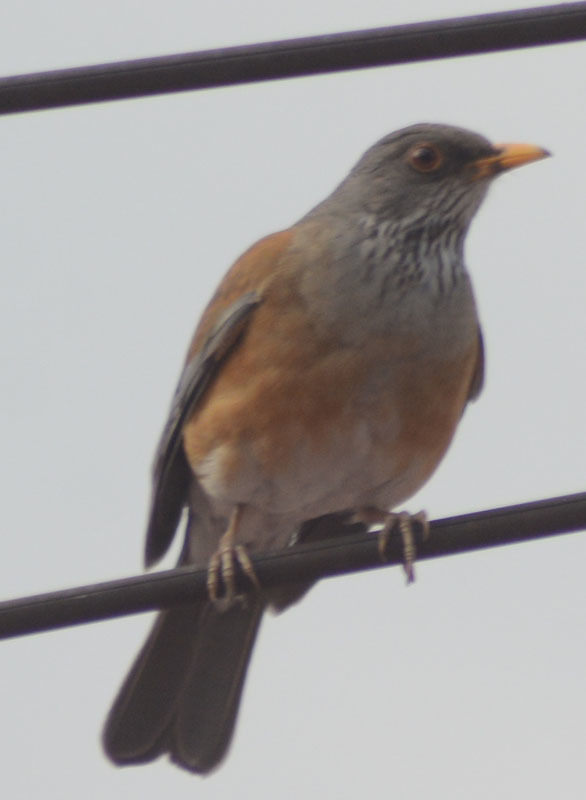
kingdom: Animalia
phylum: Chordata
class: Aves
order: Passeriformes
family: Turdidae
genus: Turdus
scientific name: Turdus rufopalliatus
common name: Rufous-backed robin
